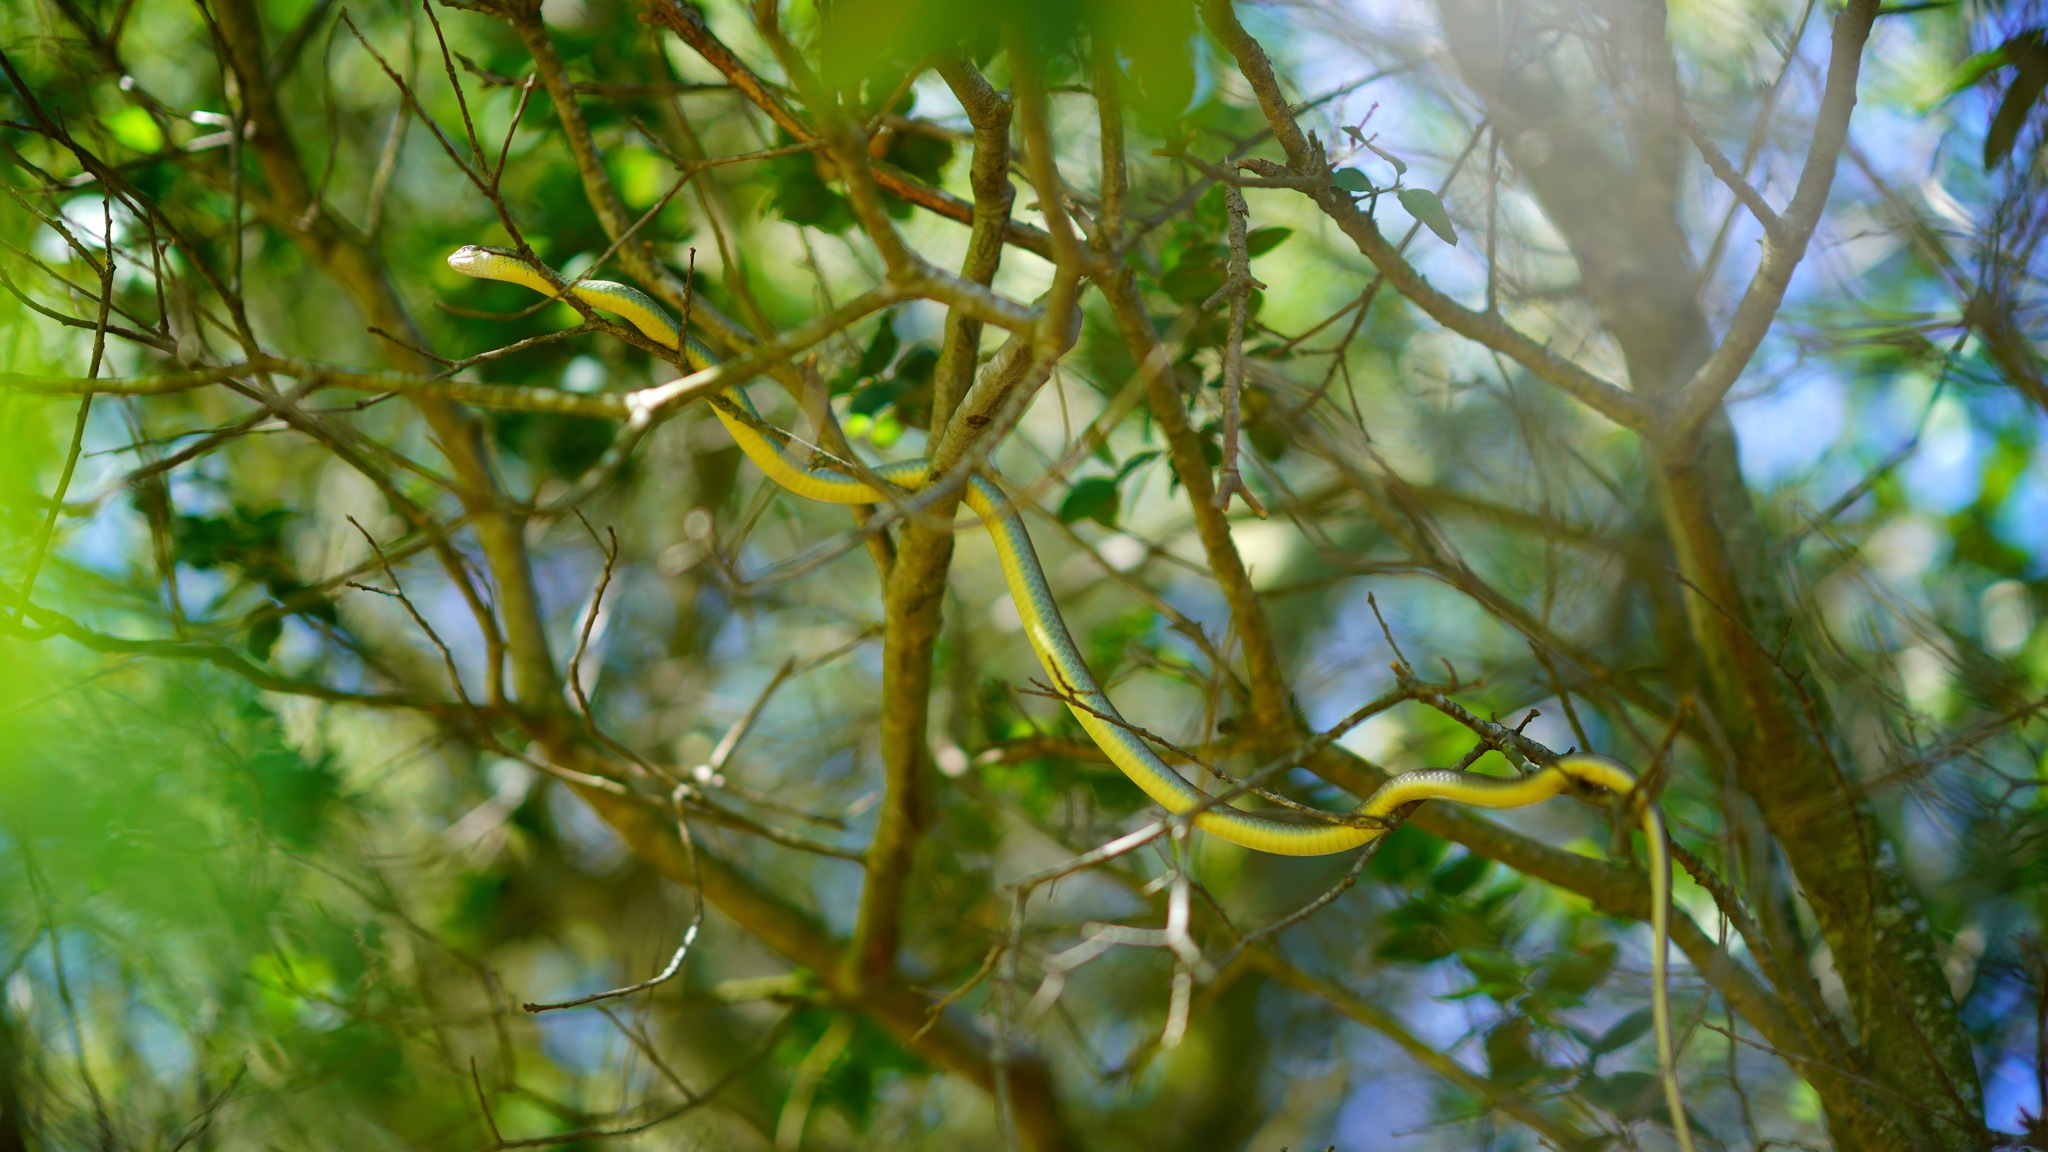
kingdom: Animalia
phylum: Chordata
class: Squamata
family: Colubridae
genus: Coluber
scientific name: Coluber constrictor
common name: Eastern racer
